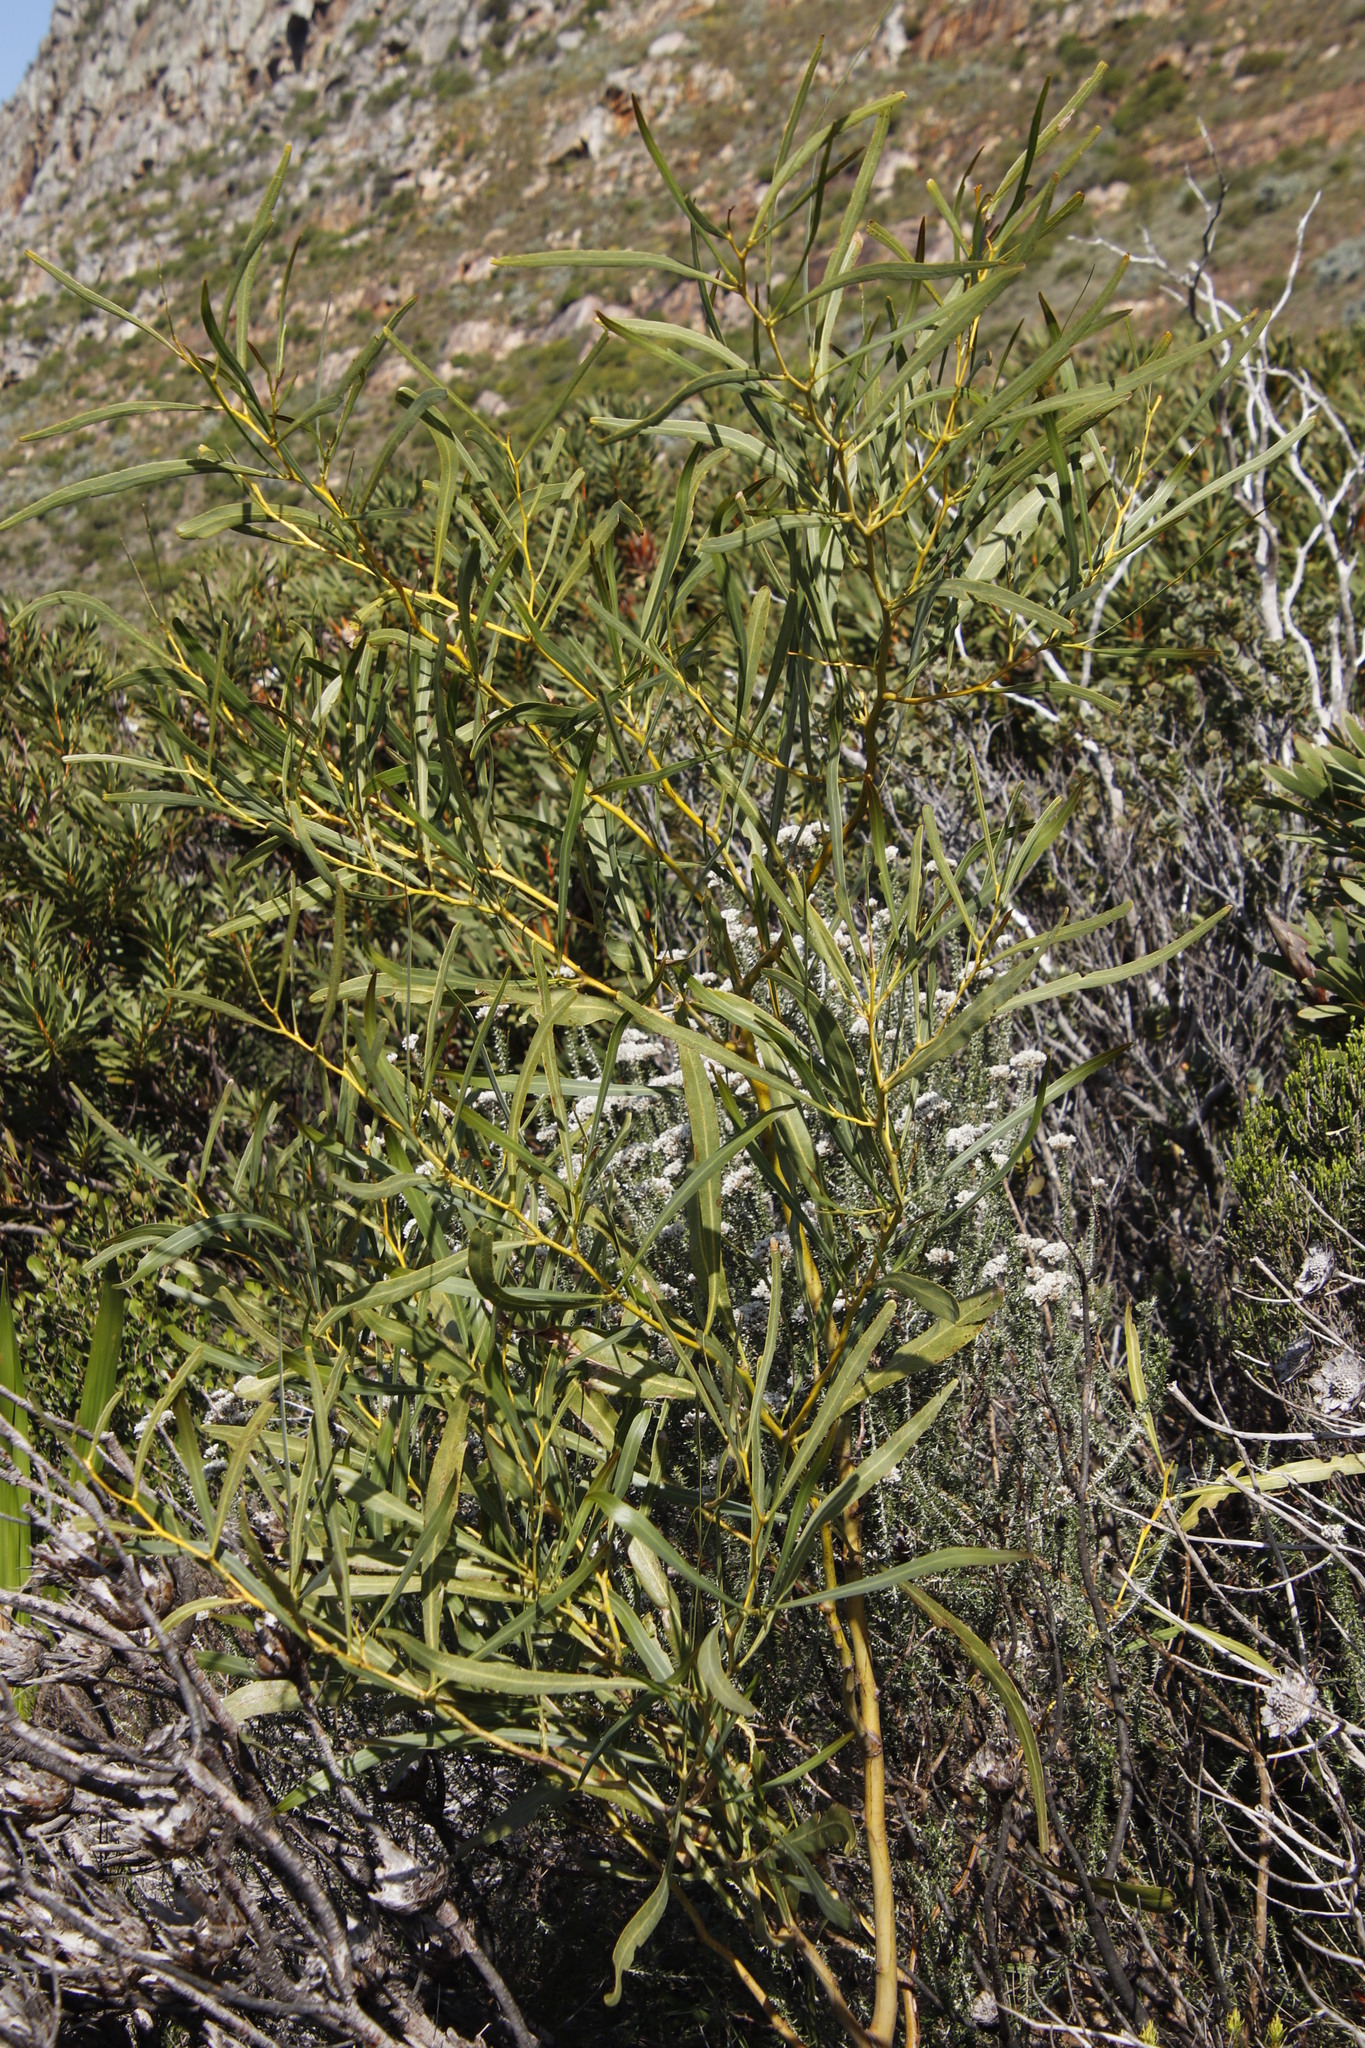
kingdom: Plantae
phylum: Tracheophyta
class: Magnoliopsida
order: Fabales
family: Fabaceae
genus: Acacia
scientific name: Acacia saligna
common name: Orange wattle
